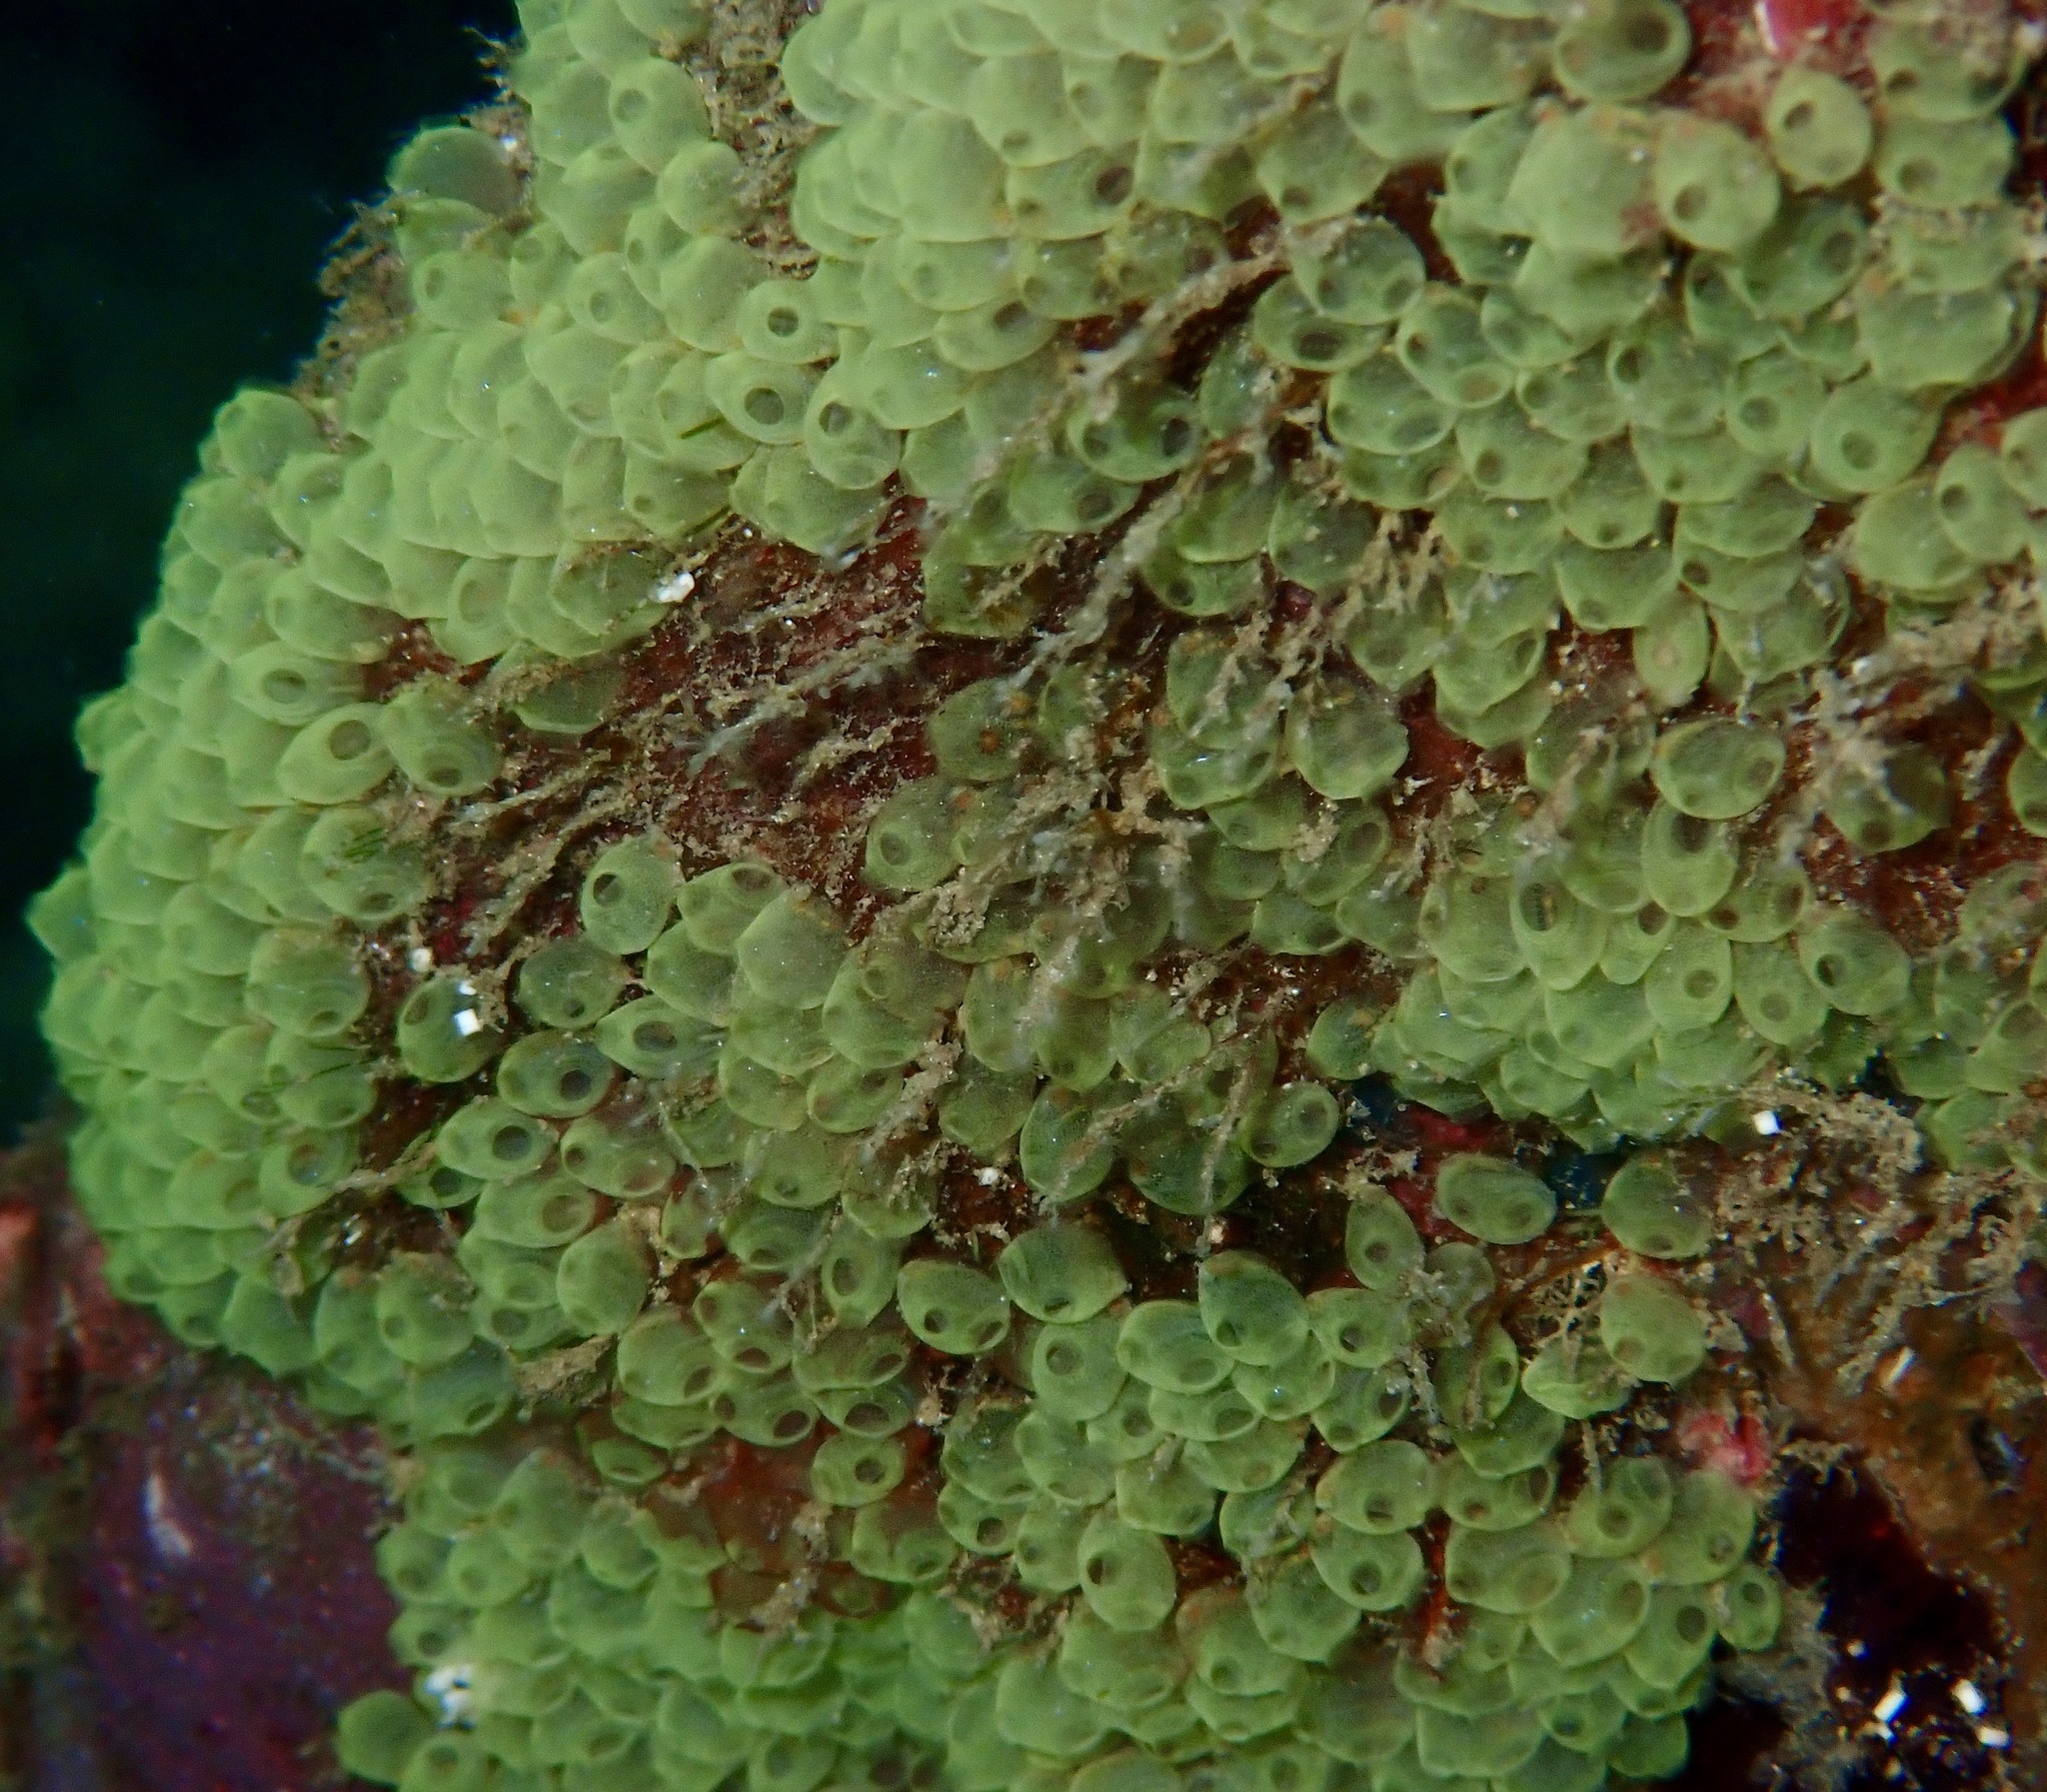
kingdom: Animalia
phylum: Chordata
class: Ascidiacea
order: Phlebobranchia
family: Perophoridae
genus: Perophora
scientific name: Perophora modificata
